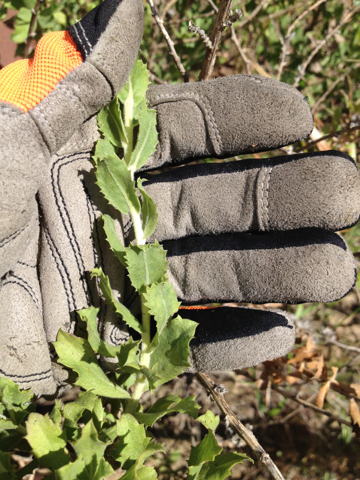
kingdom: Plantae
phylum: Tracheophyta
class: Magnoliopsida
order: Asterales
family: Asteraceae
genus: Hazardia
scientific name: Hazardia squarrosa
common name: Saw-tooth goldenbush
